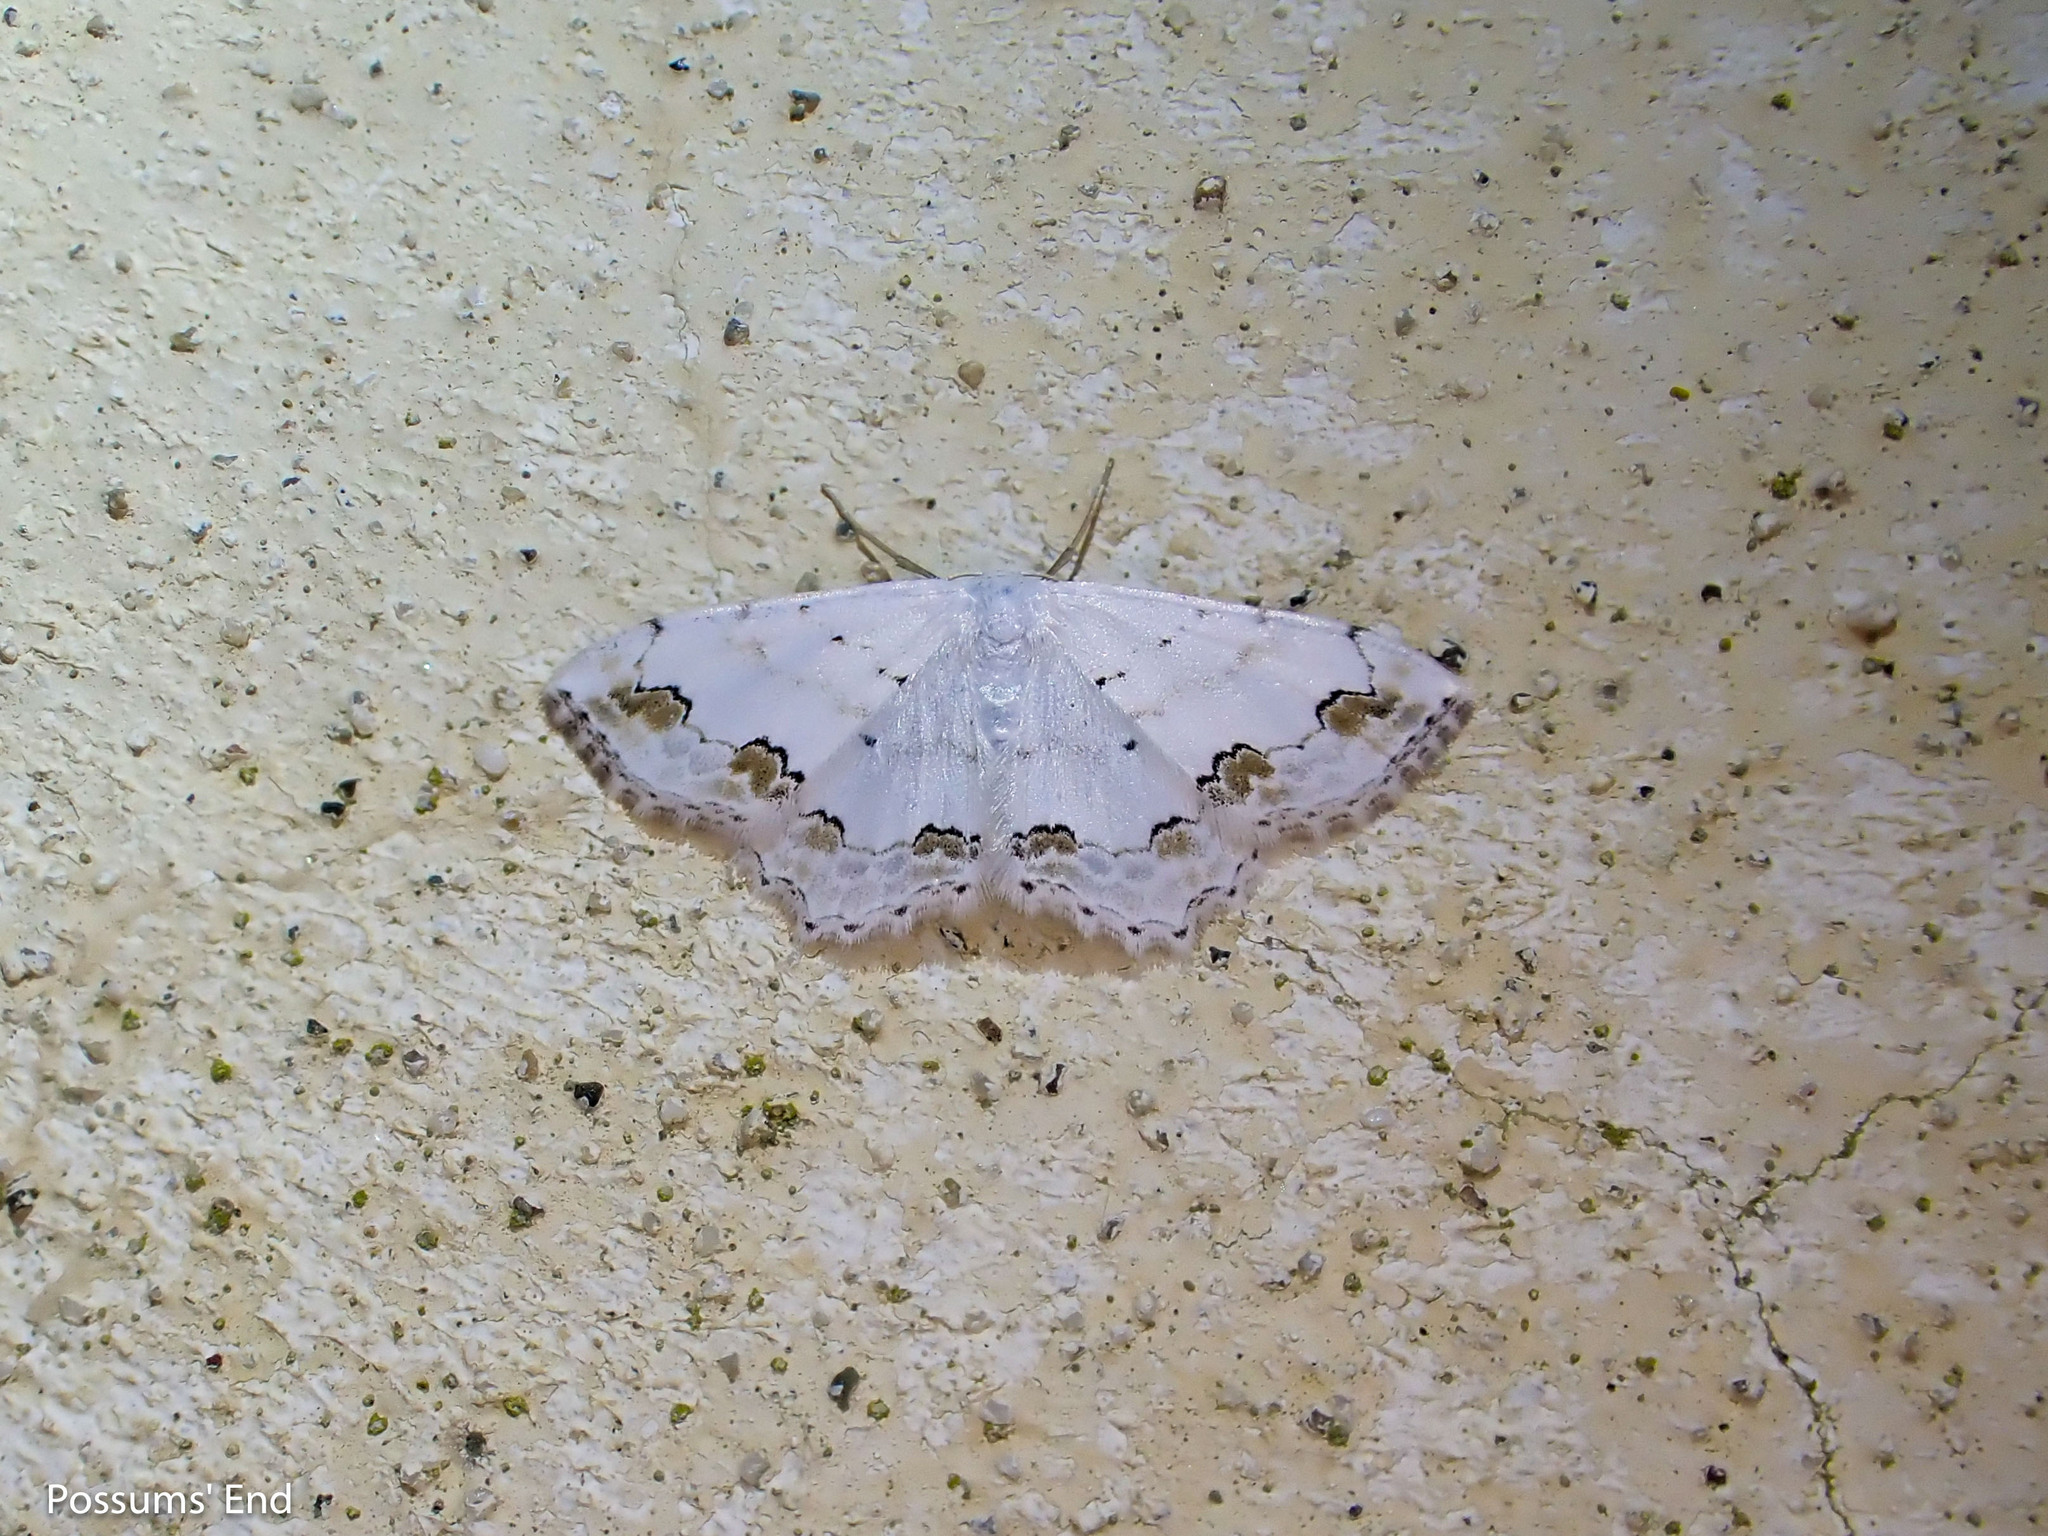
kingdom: Animalia
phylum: Arthropoda
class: Insecta
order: Lepidoptera
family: Geometridae
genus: Scopula
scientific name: Scopula ornata
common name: Lace border
